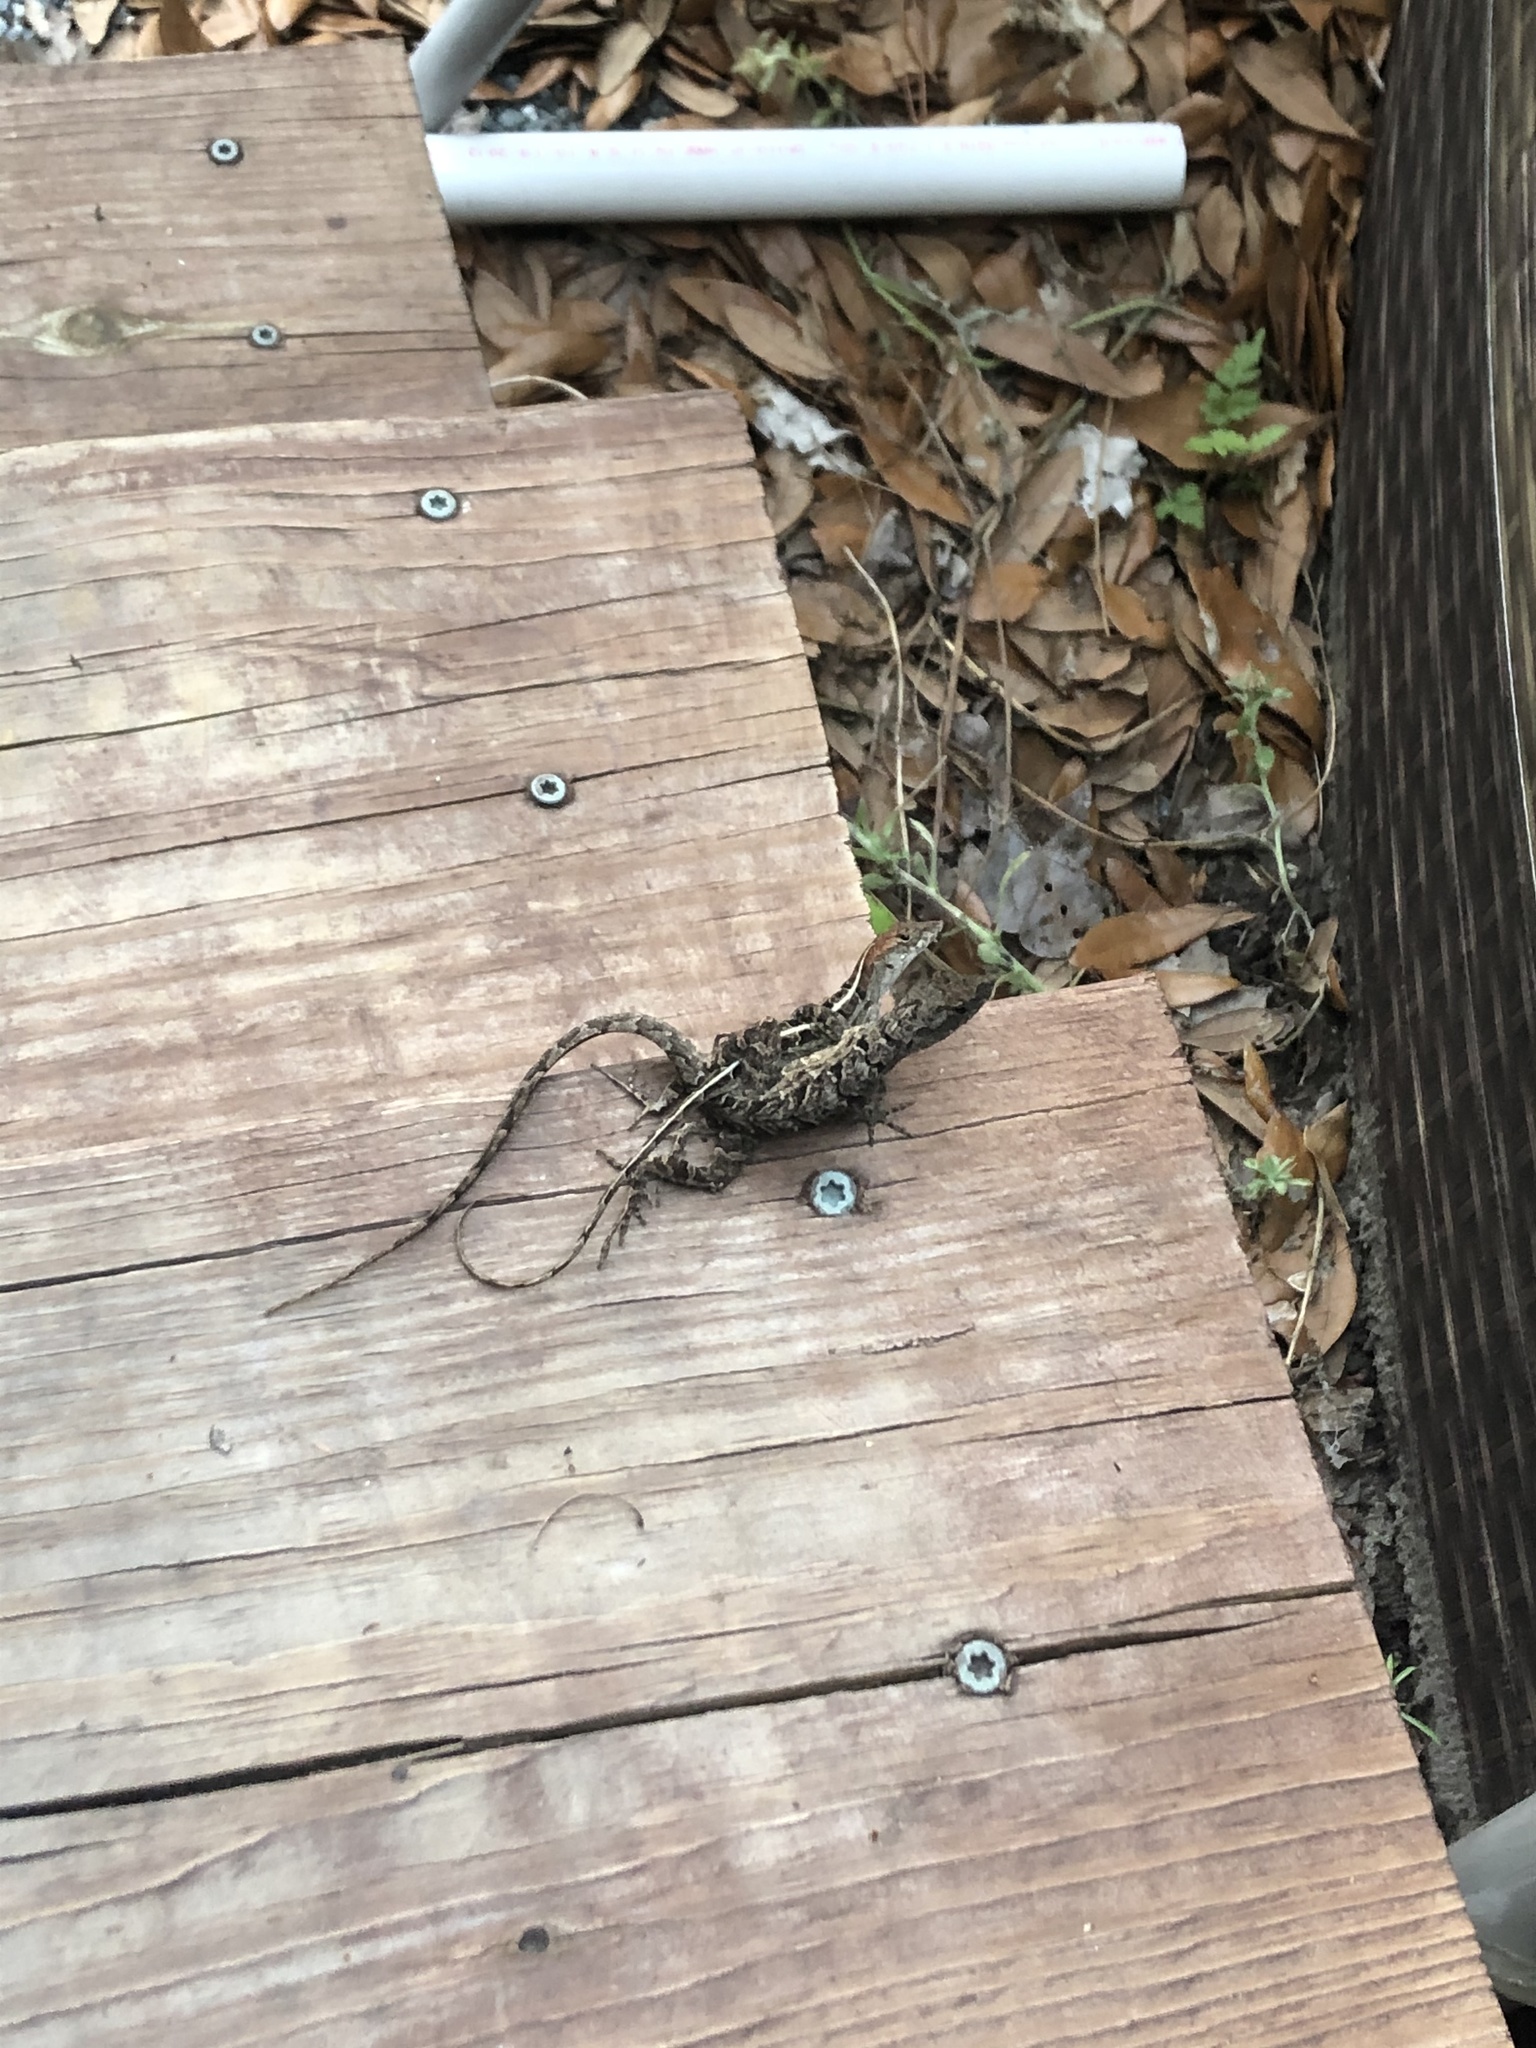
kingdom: Animalia
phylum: Chordata
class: Squamata
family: Dactyloidae
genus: Anolis
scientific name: Anolis sagrei
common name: Brown anole
